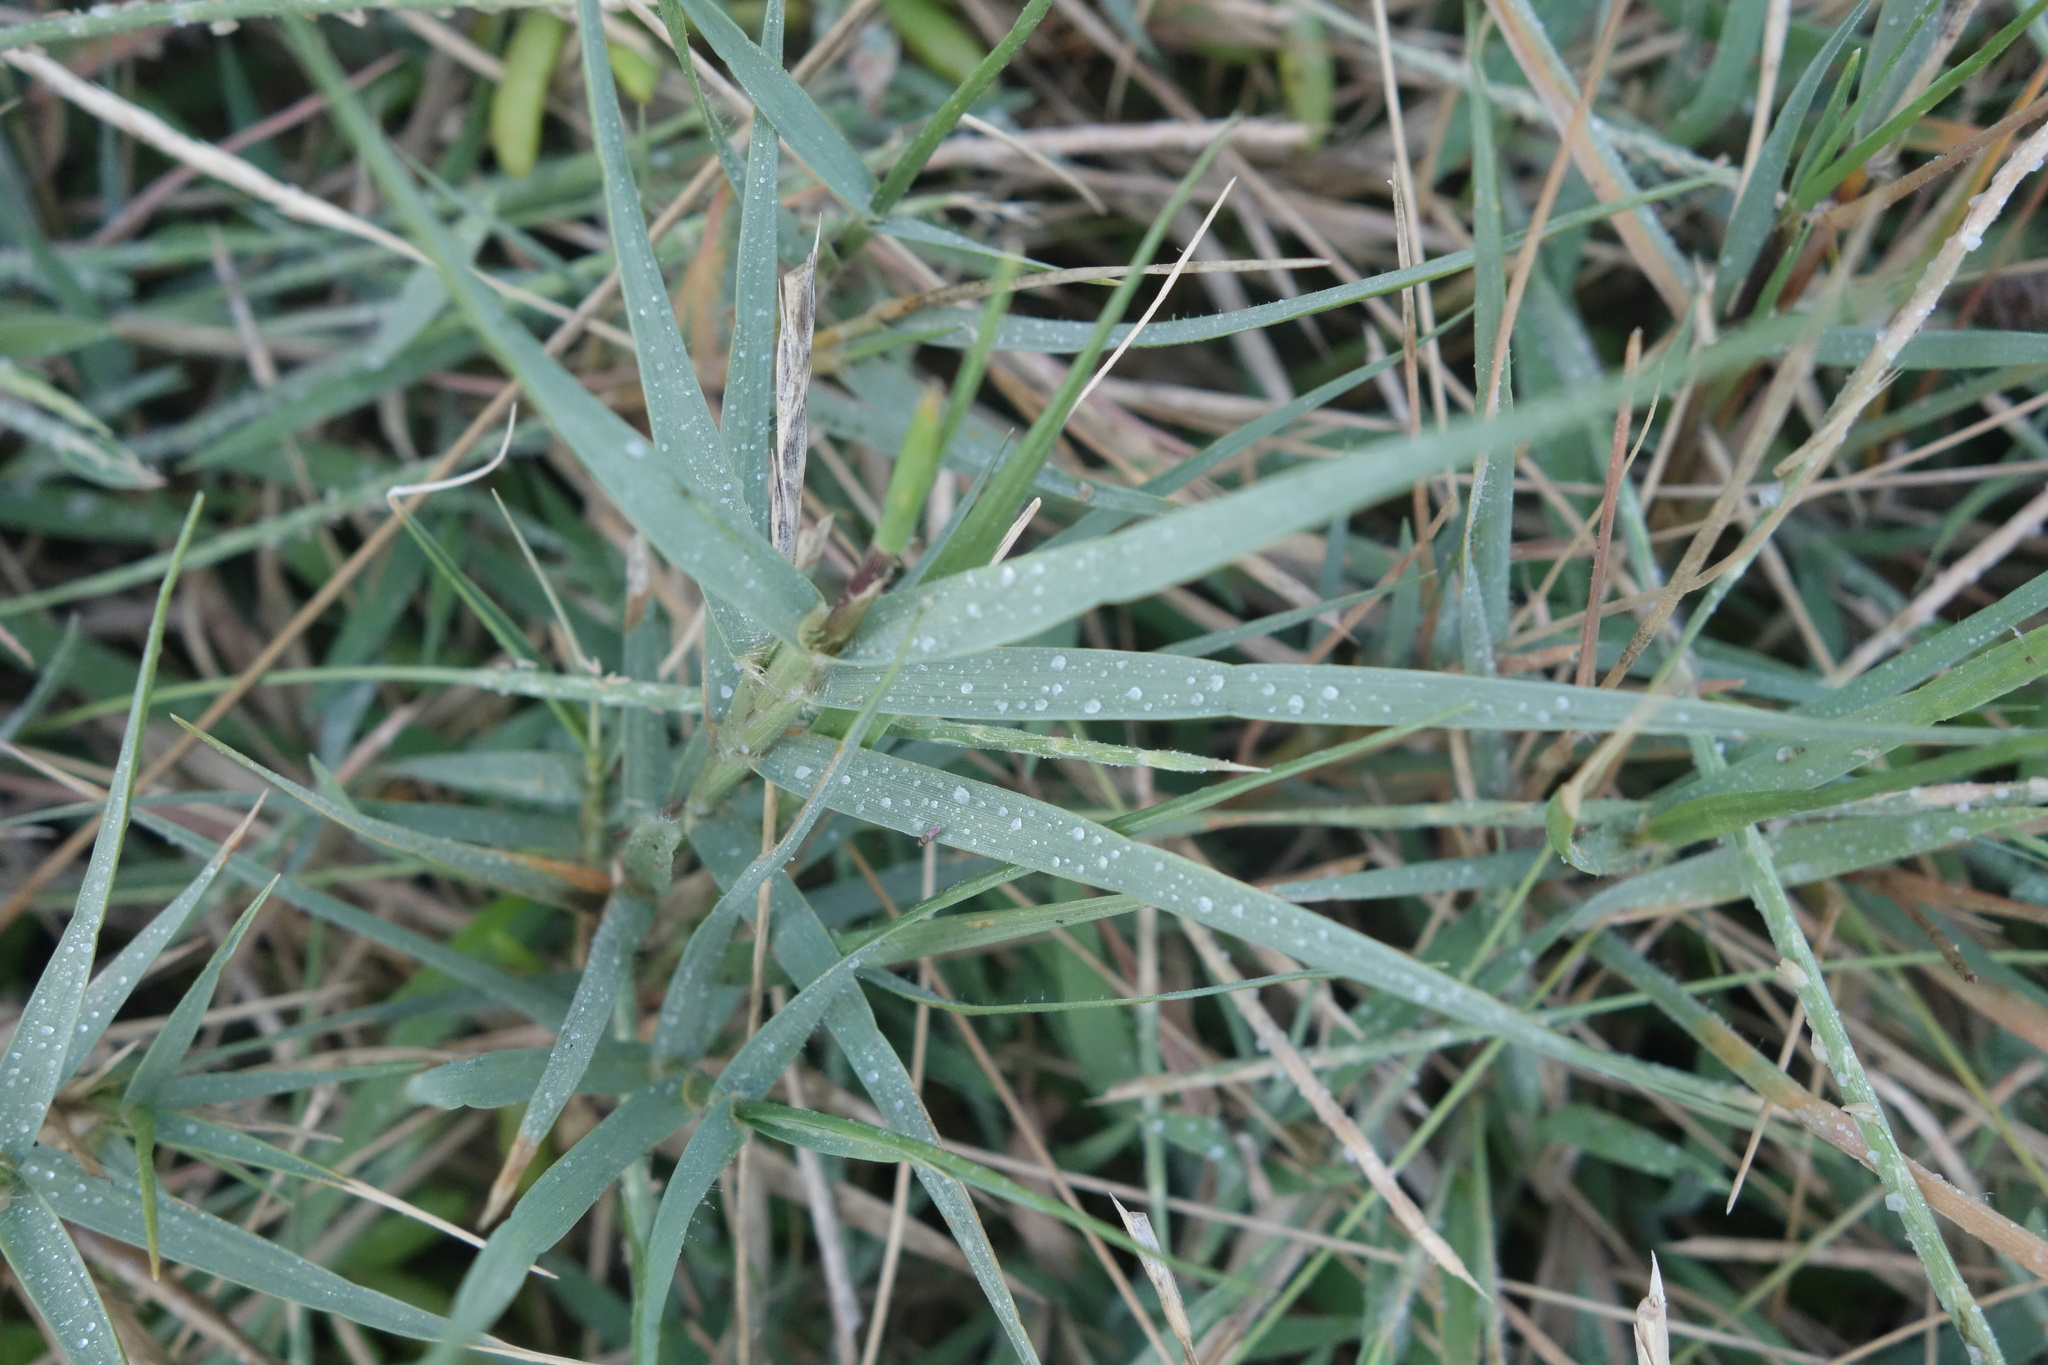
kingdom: Plantae
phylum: Tracheophyta
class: Liliopsida
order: Poales
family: Poaceae
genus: Cynodon
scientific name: Cynodon dactylon
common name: Bermuda grass
